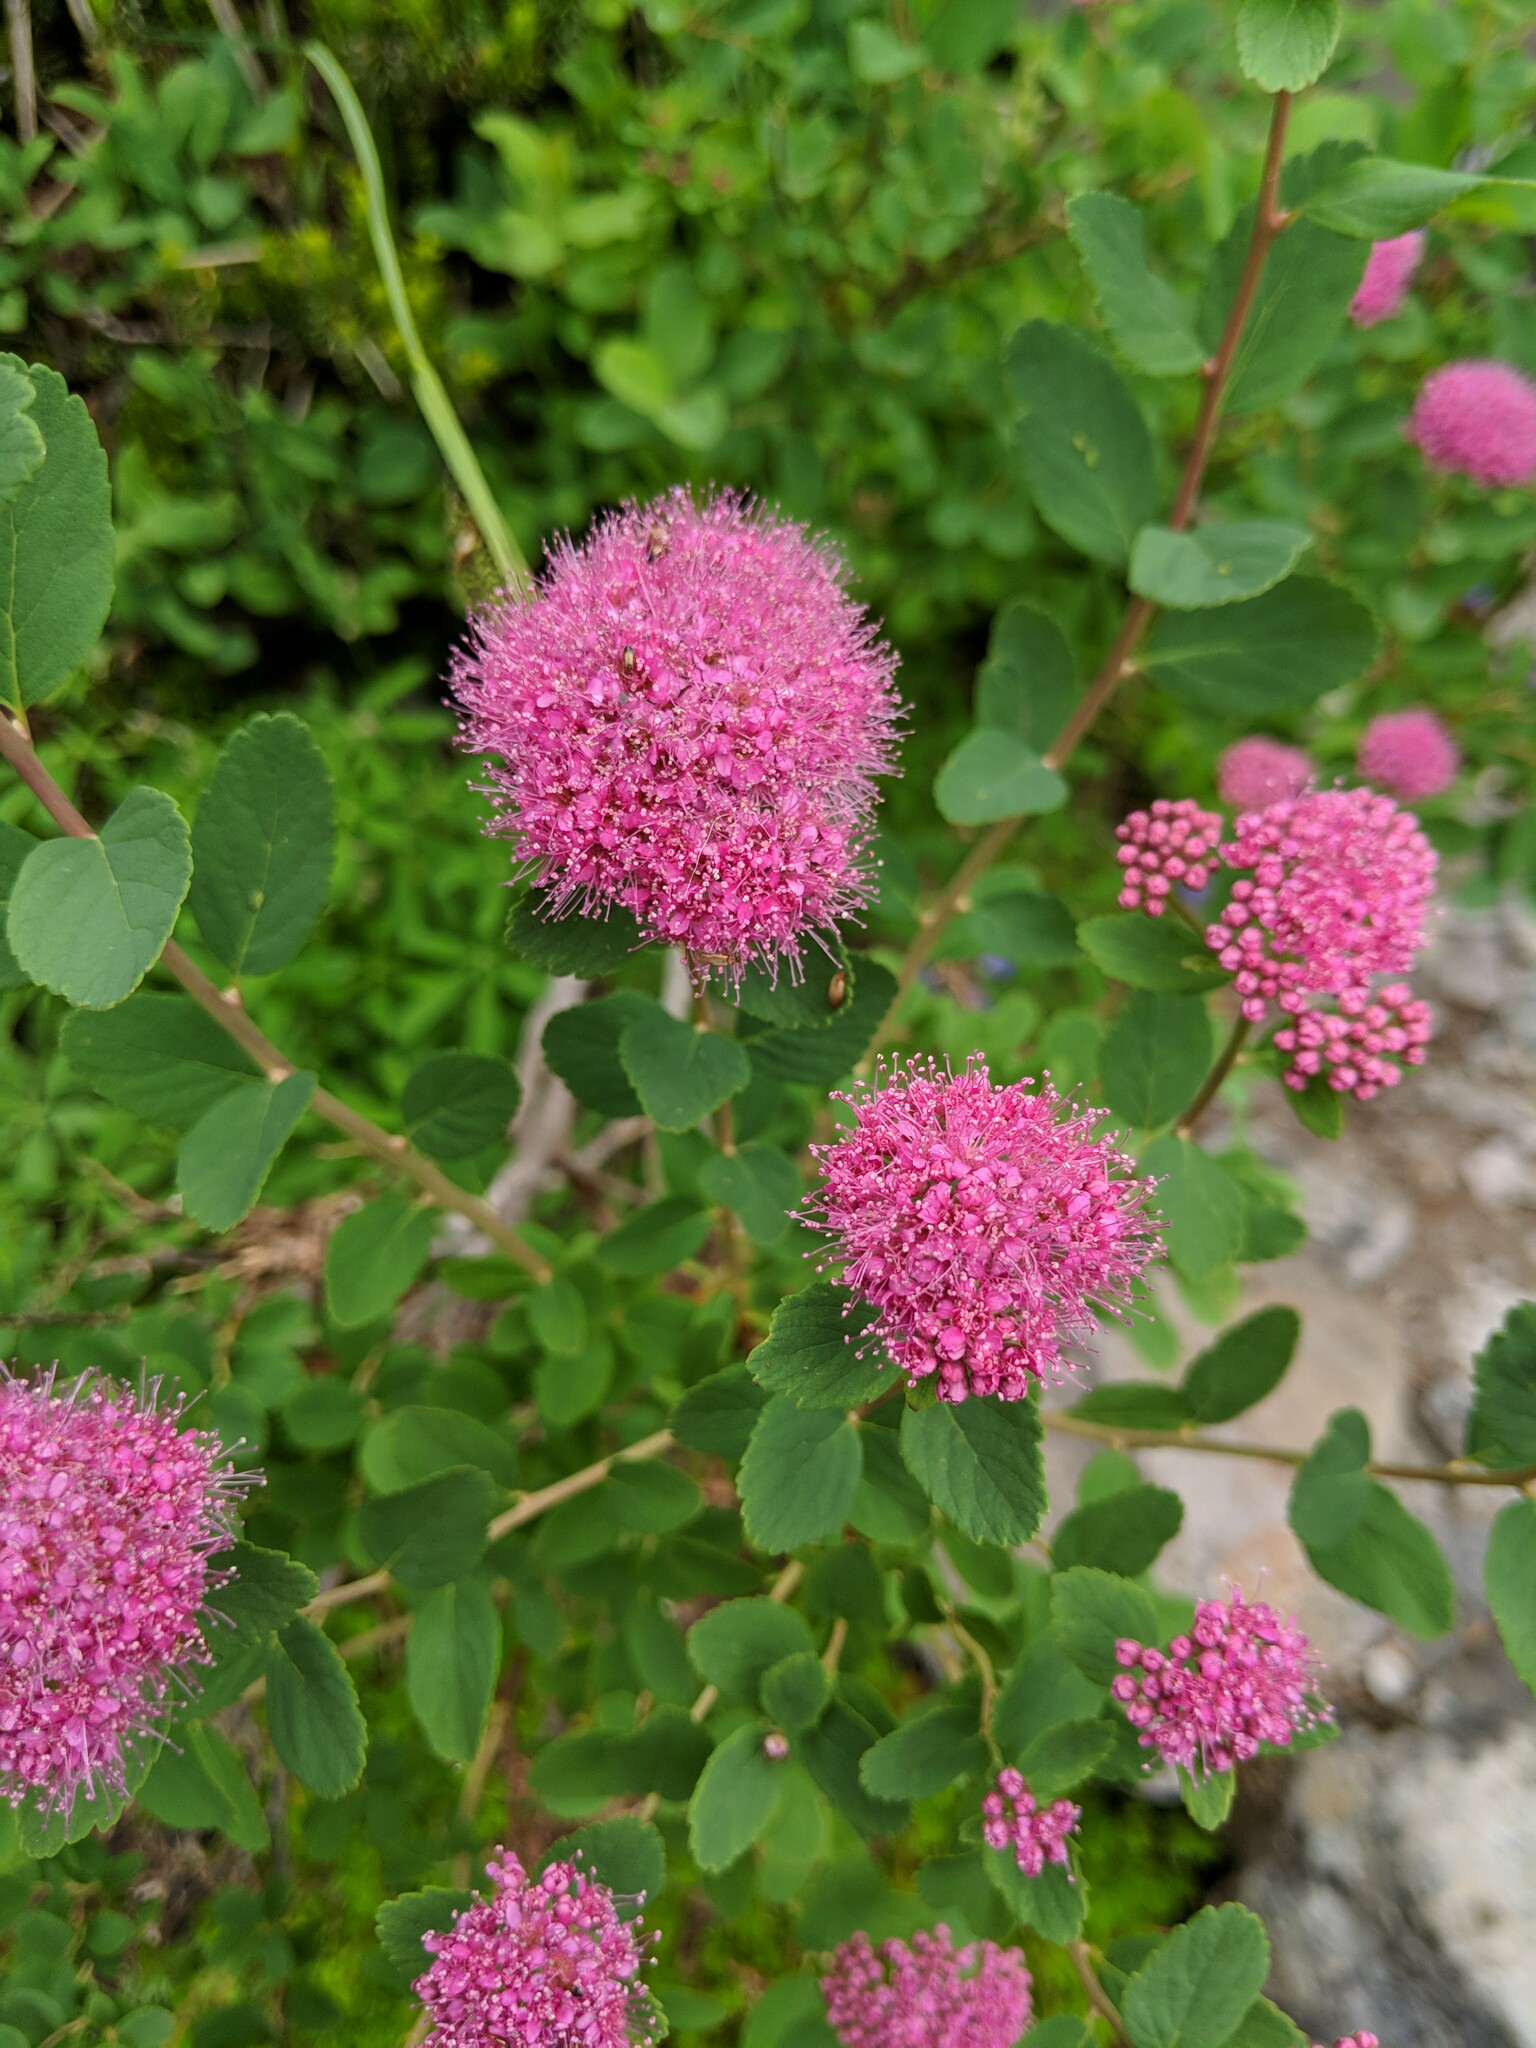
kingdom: Plantae
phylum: Tracheophyta
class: Magnoliopsida
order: Rosales
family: Rosaceae
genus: Spiraea
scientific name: Spiraea splendens
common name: Subalpine meadowsweet
